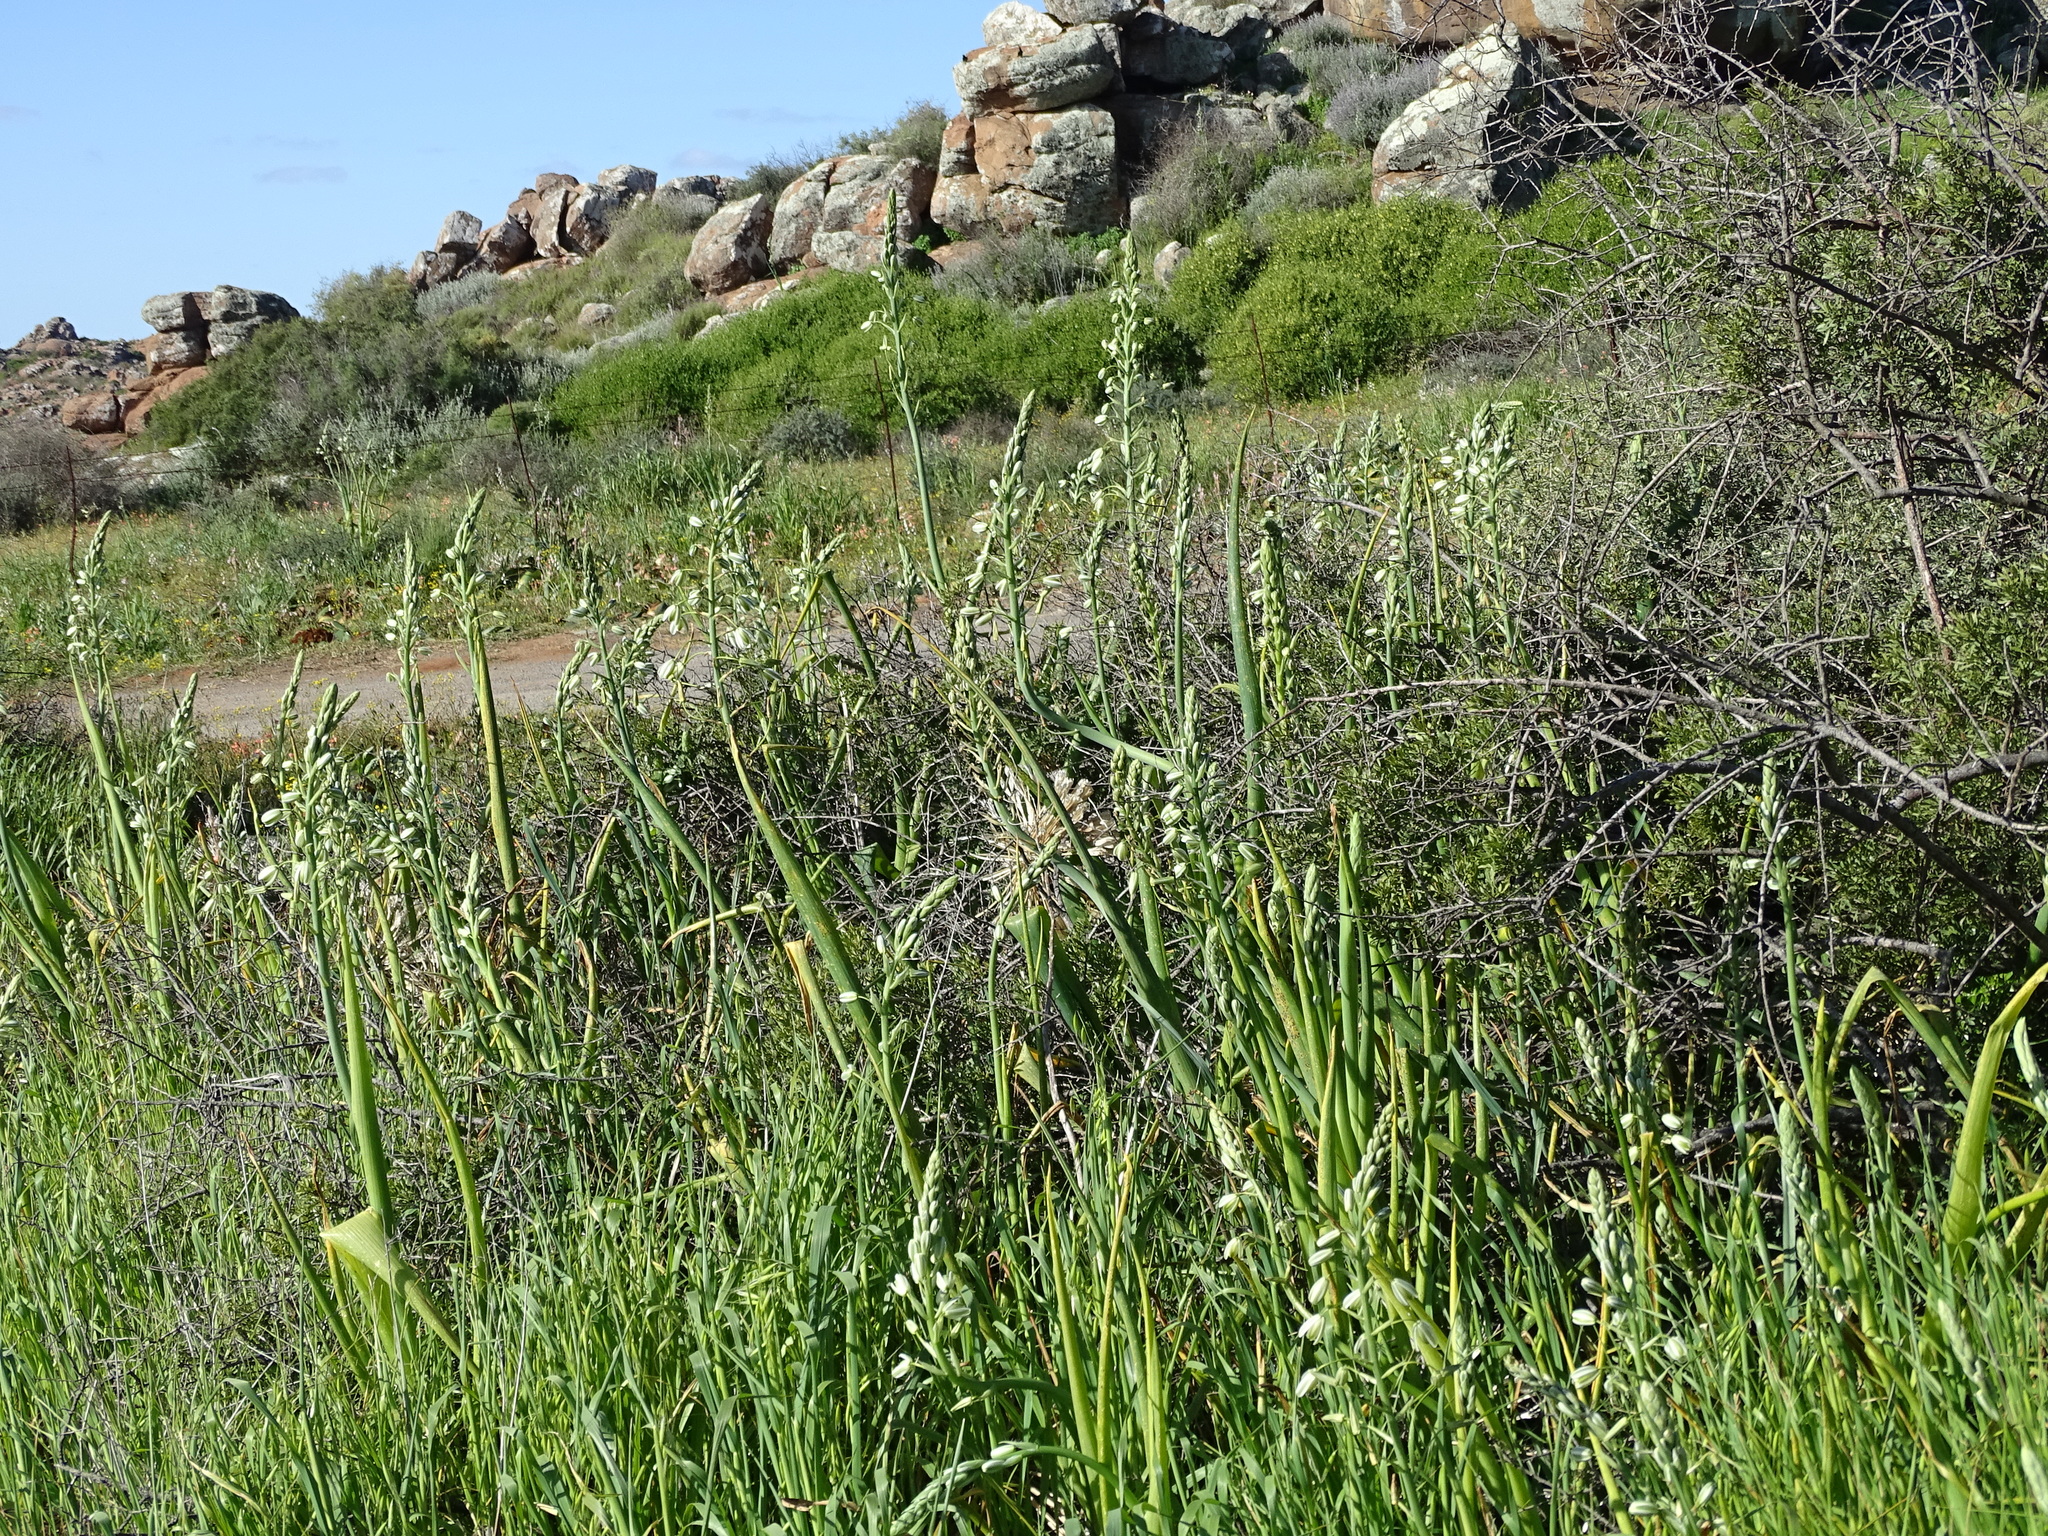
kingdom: Plantae
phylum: Tracheophyta
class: Liliopsida
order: Asparagales
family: Asparagaceae
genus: Albuca
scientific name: Albuca canadensis
